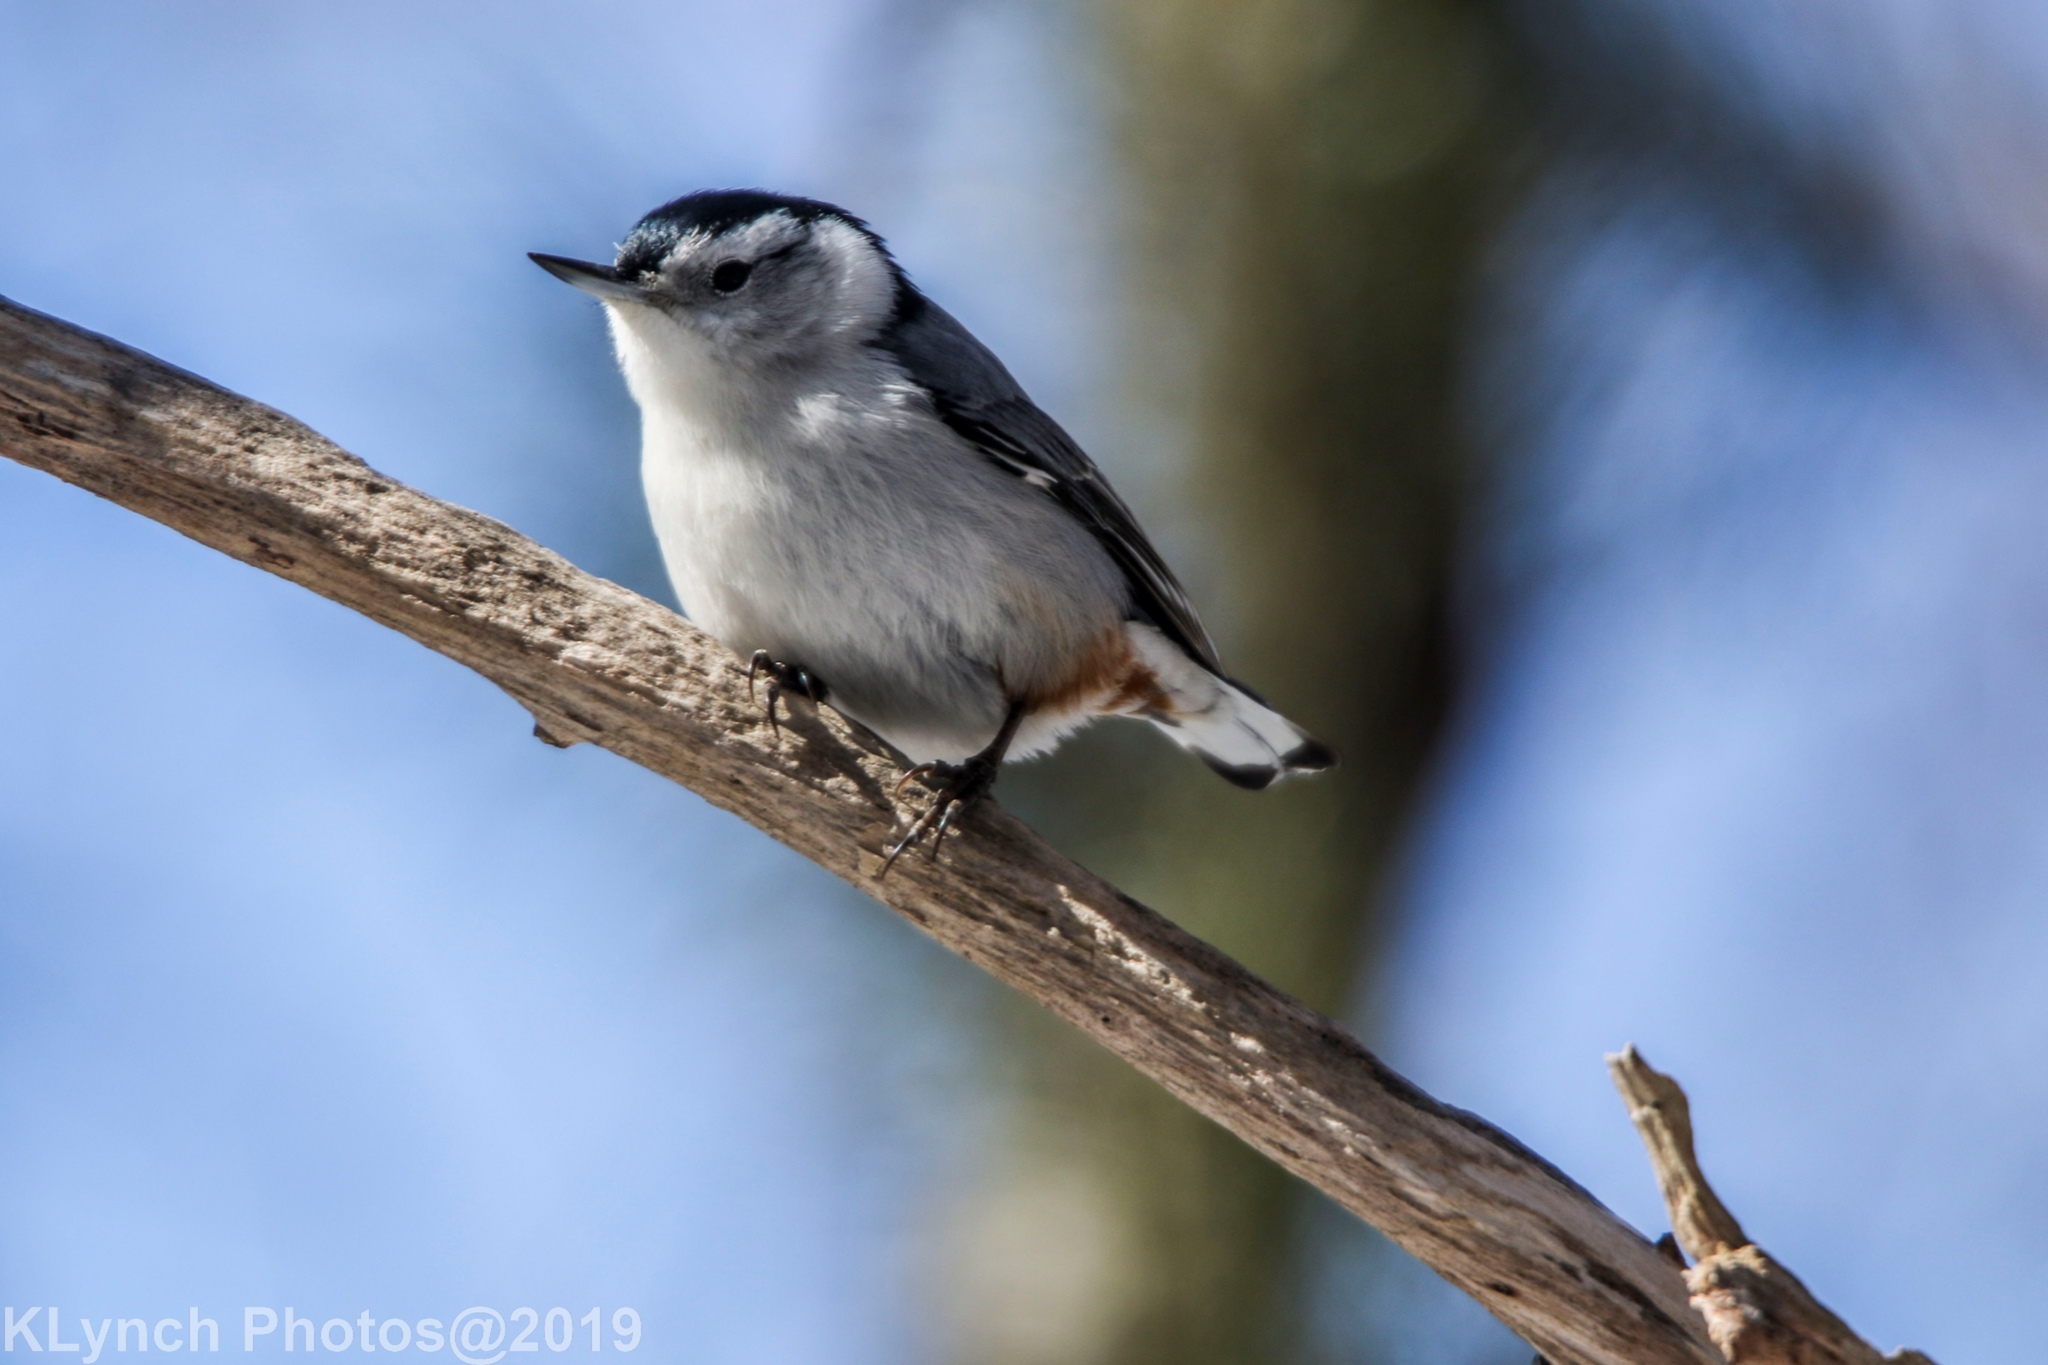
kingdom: Animalia
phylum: Chordata
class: Aves
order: Passeriformes
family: Sittidae
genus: Sitta
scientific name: Sitta carolinensis
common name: White-breasted nuthatch
